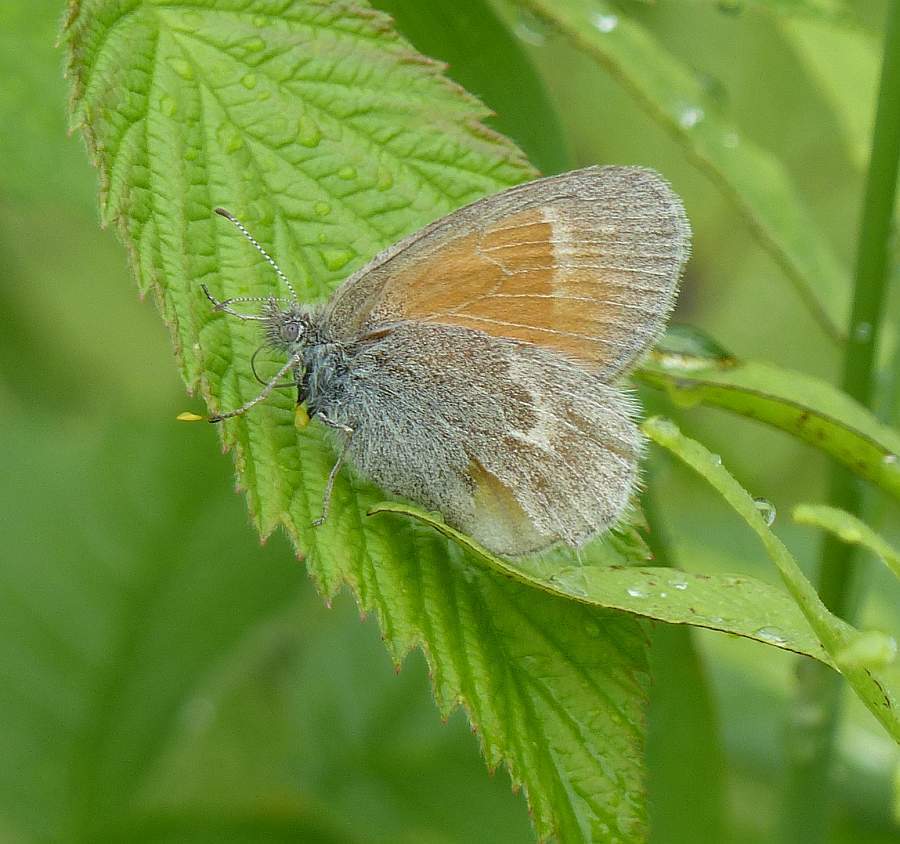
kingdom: Animalia
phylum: Arthropoda
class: Insecta
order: Lepidoptera
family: Nymphalidae
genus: Coenonympha
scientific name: Coenonympha california
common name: Common ringlet
